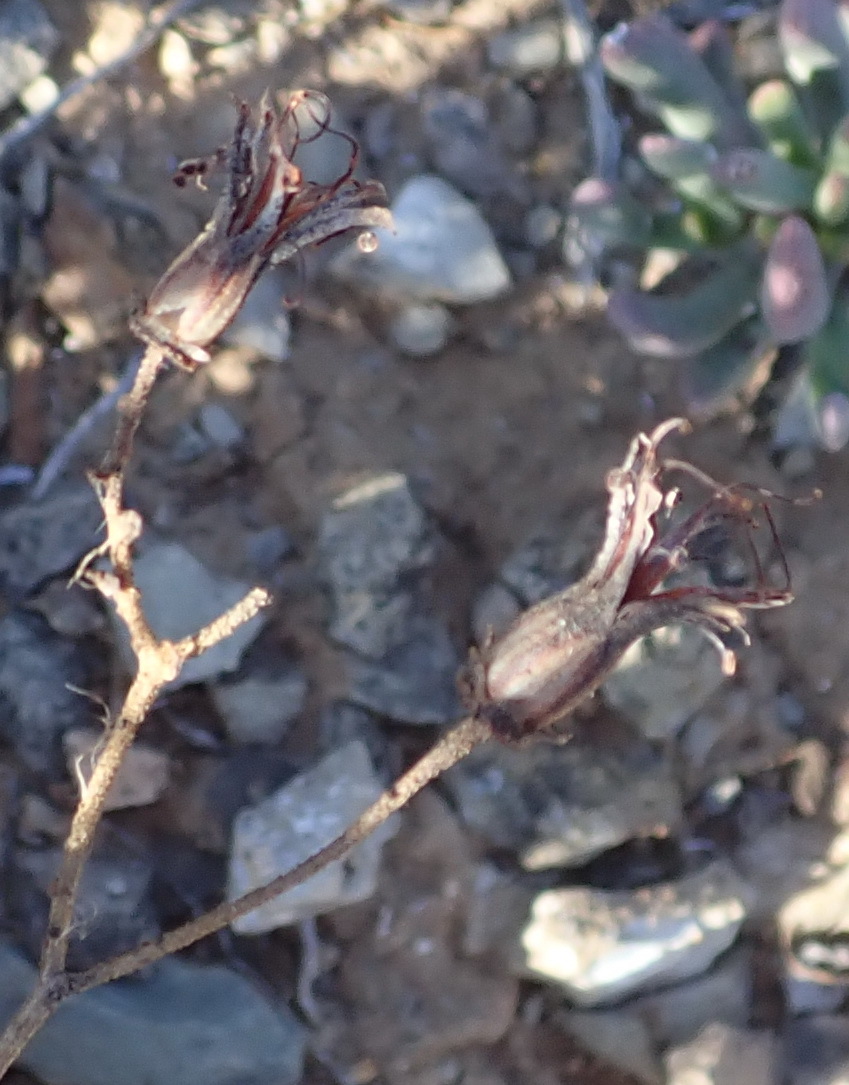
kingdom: Plantae
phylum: Tracheophyta
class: Magnoliopsida
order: Saxifragales
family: Crassulaceae
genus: Cotyledon
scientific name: Cotyledon papillaris
